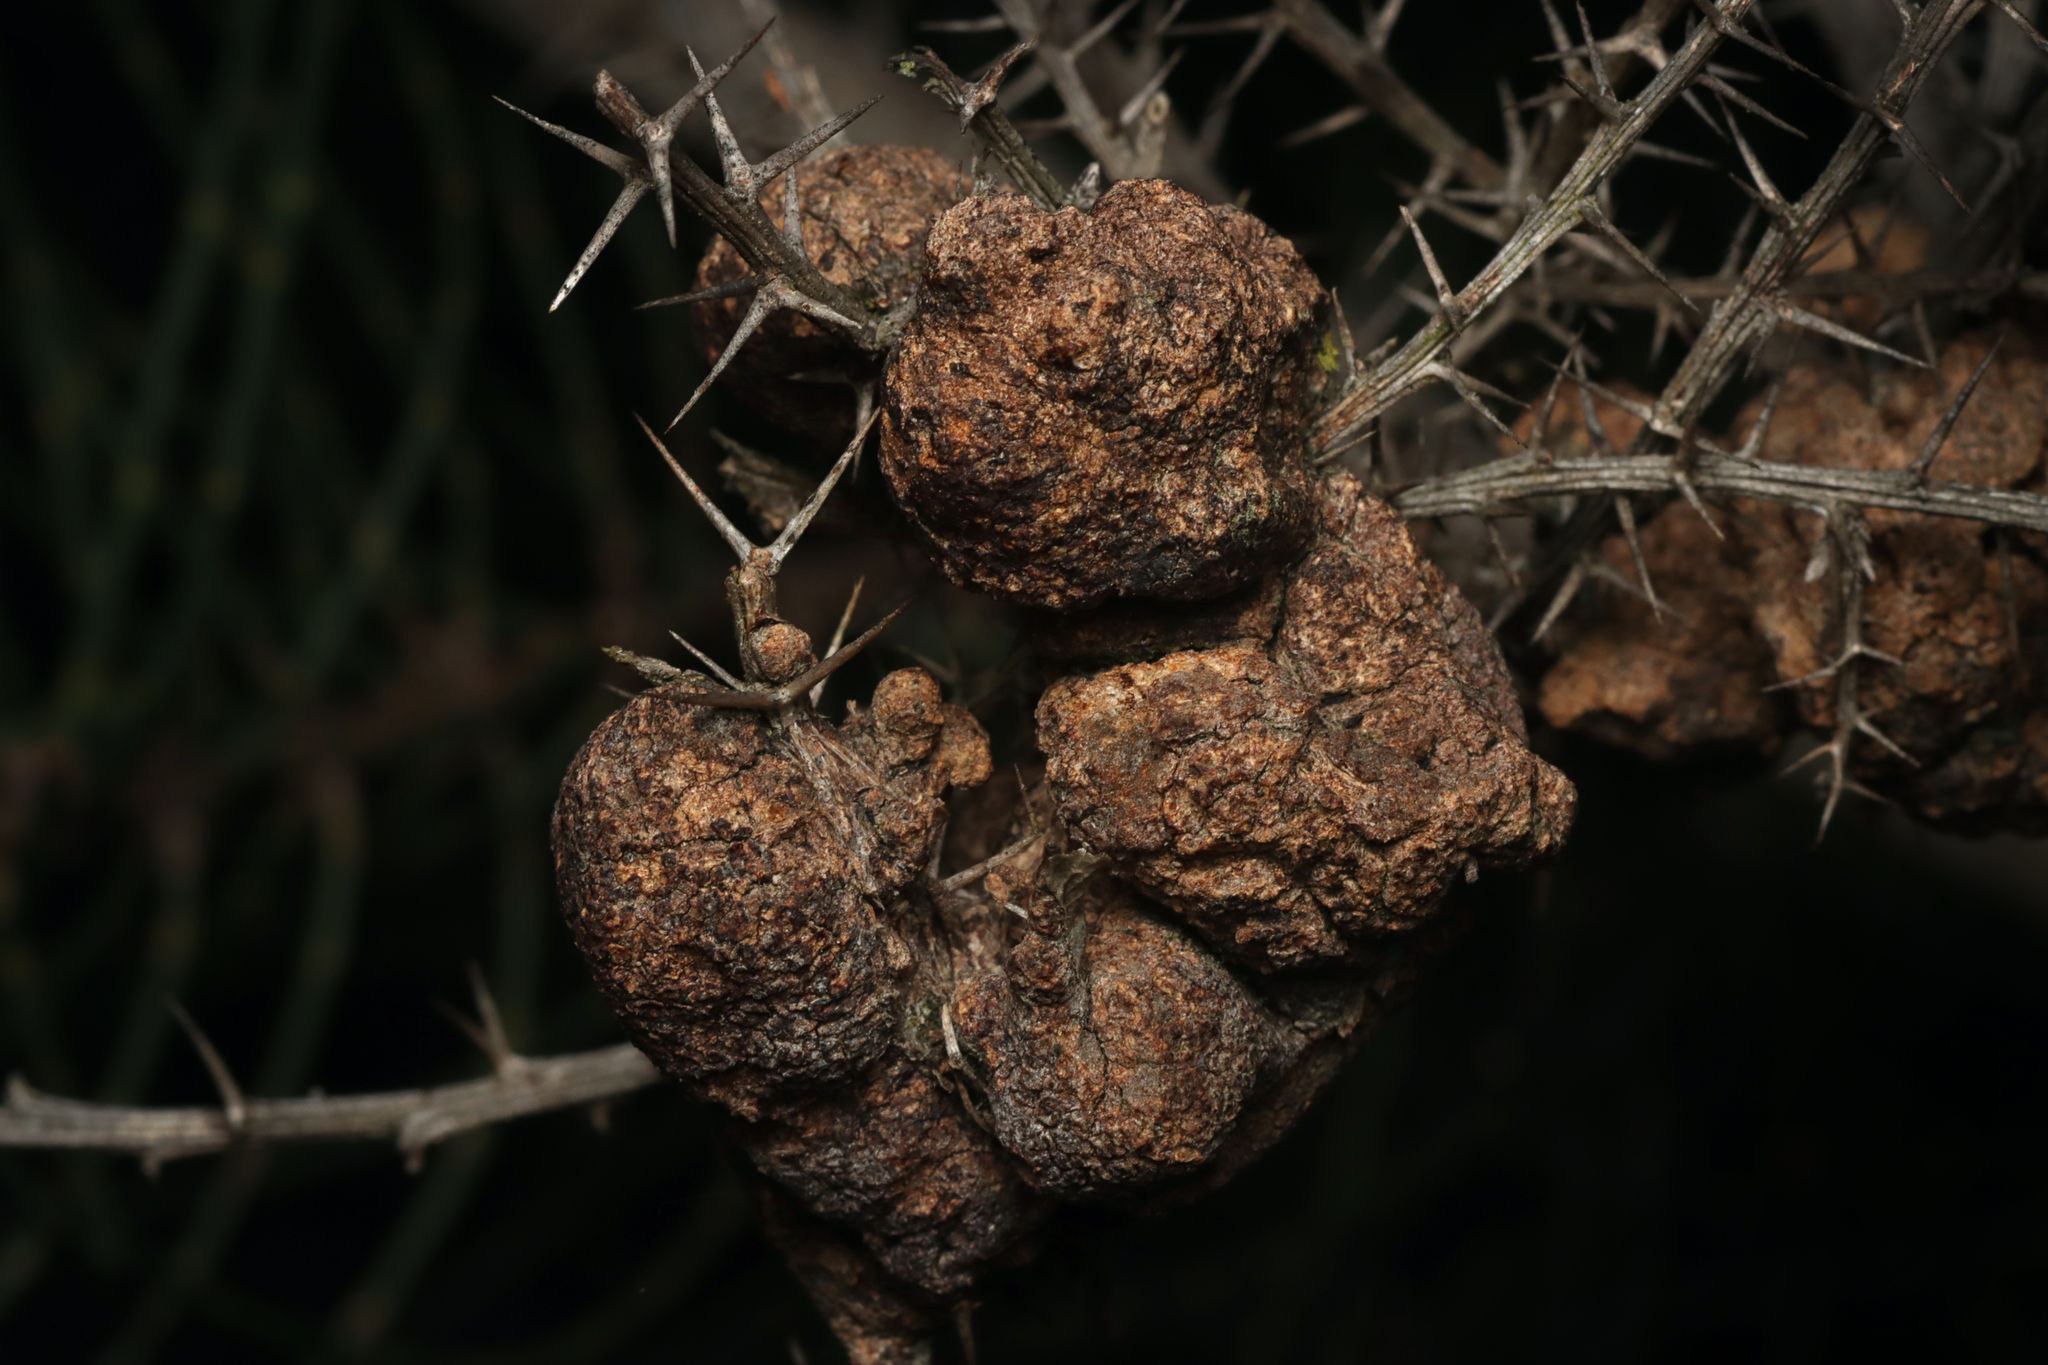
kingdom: Fungi
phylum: Basidiomycota
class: Pucciniomycetes
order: Pucciniales
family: Uromycladiaceae
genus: Uromycladium
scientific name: Uromycladium paradoxae
